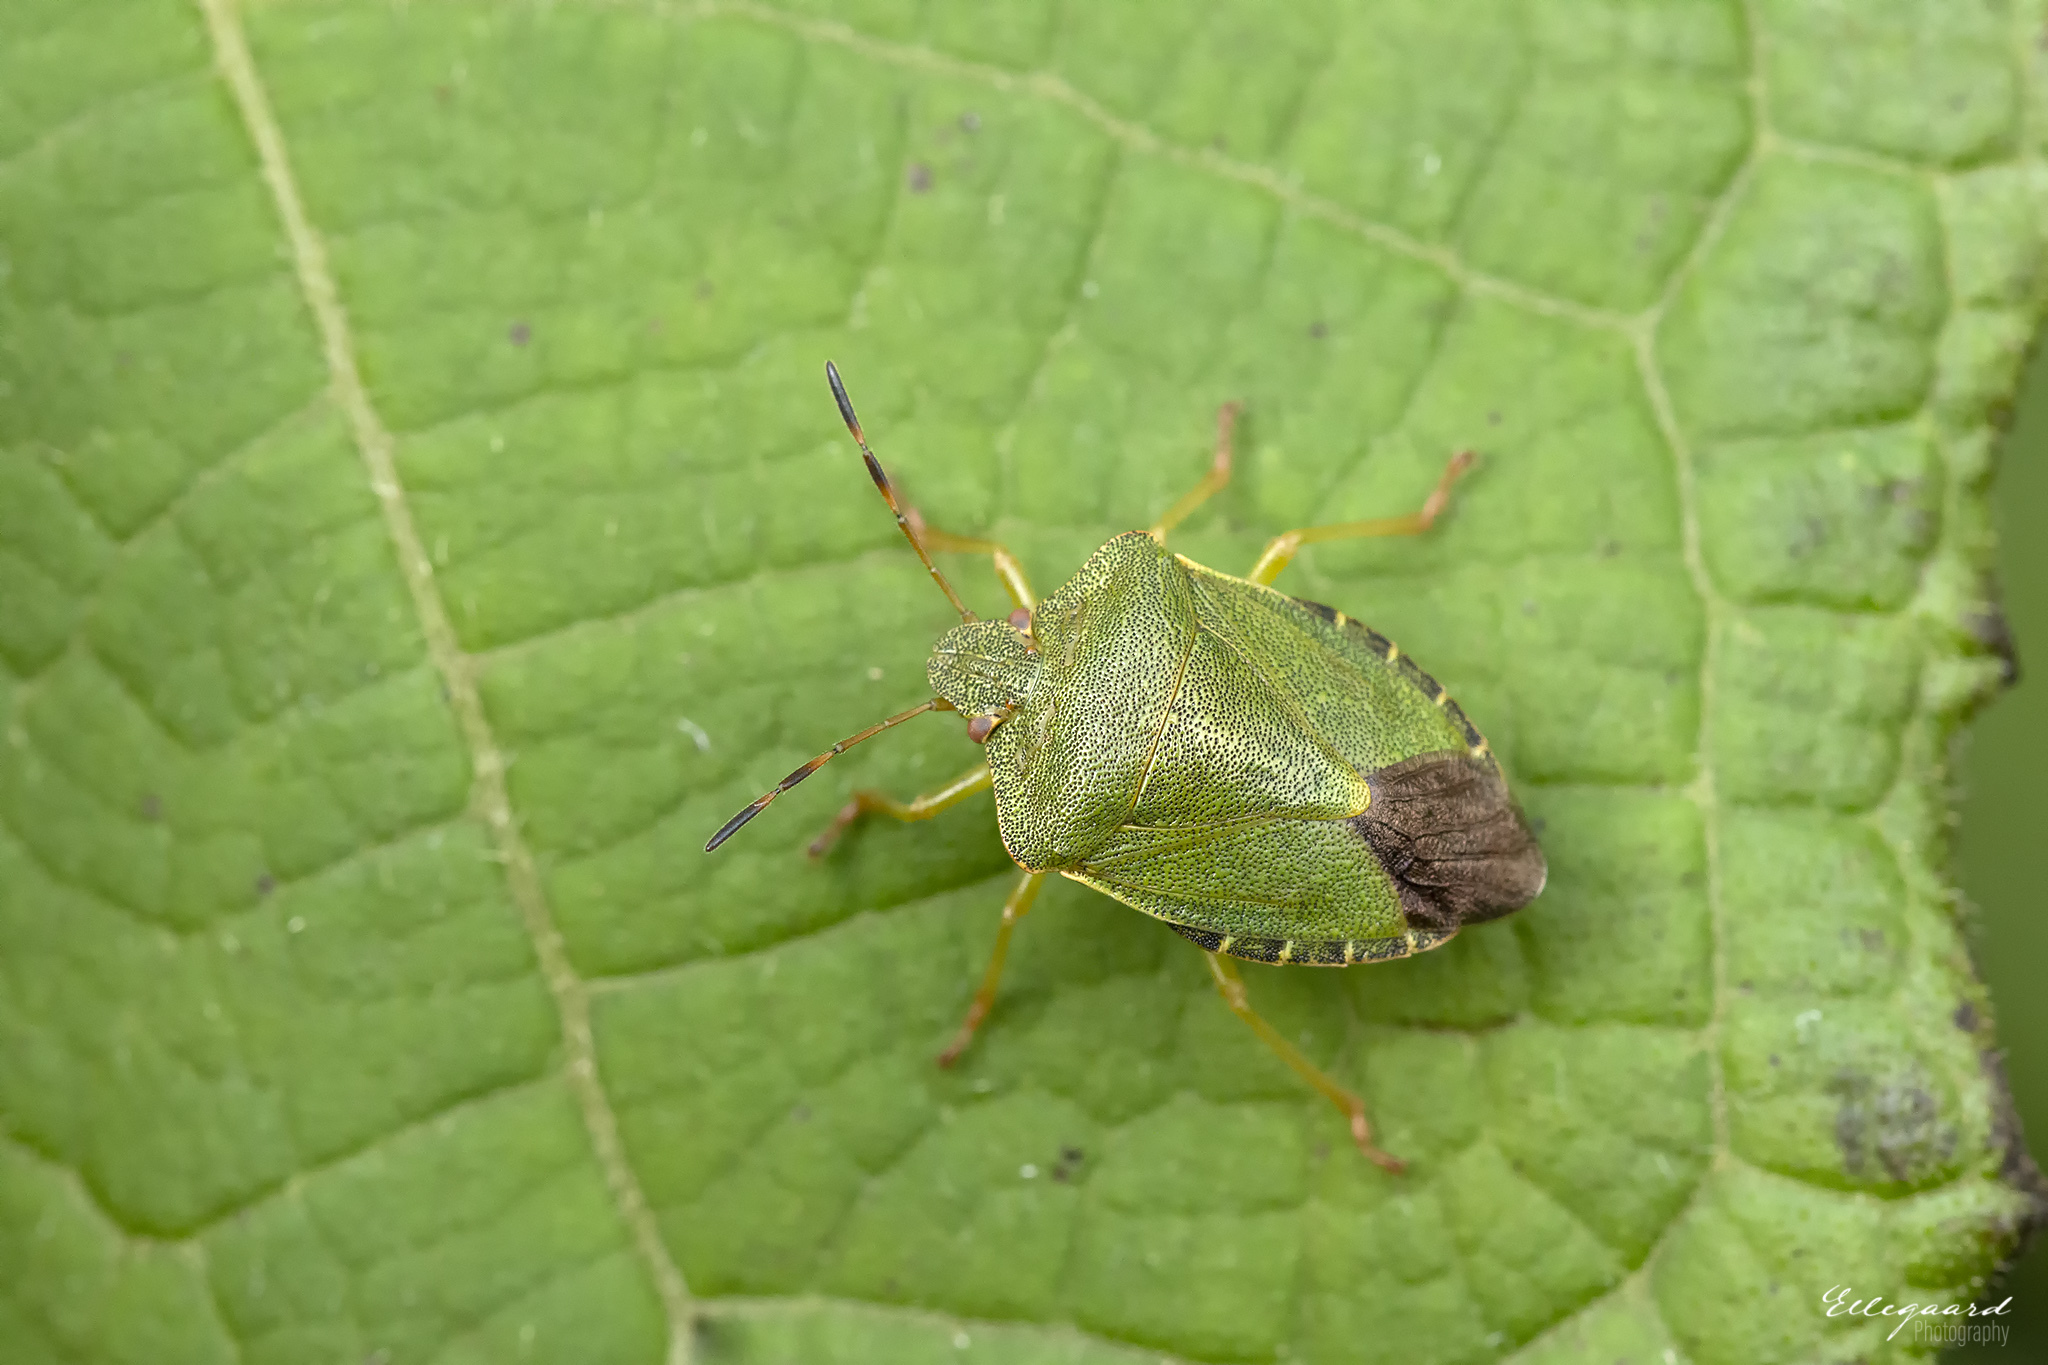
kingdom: Animalia
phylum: Arthropoda
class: Insecta
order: Hemiptera
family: Pentatomidae
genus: Palomena
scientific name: Palomena prasina
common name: Green shieldbug
